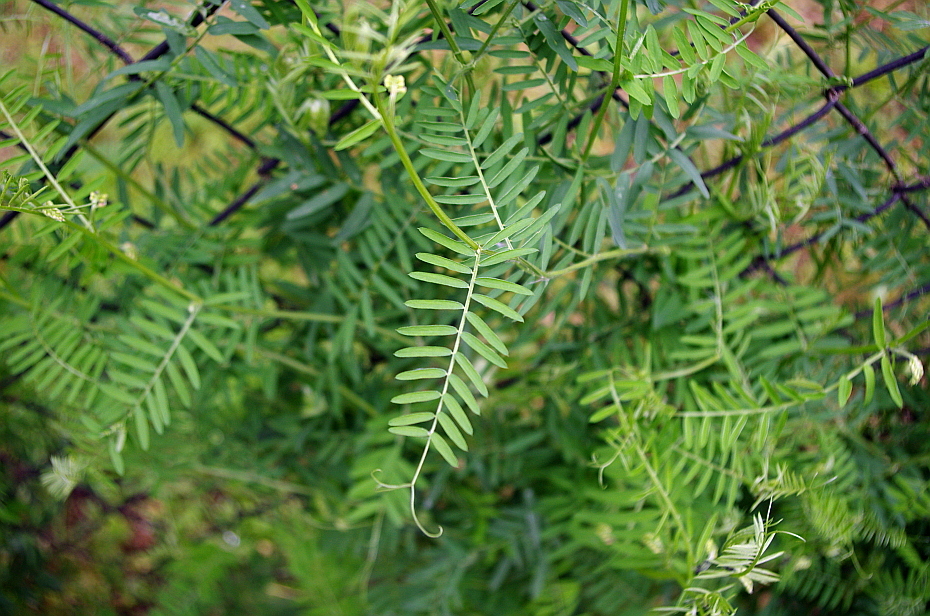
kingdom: Plantae
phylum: Tracheophyta
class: Magnoliopsida
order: Fabales
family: Fabaceae
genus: Vicia
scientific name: Vicia cracca
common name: Bird vetch
